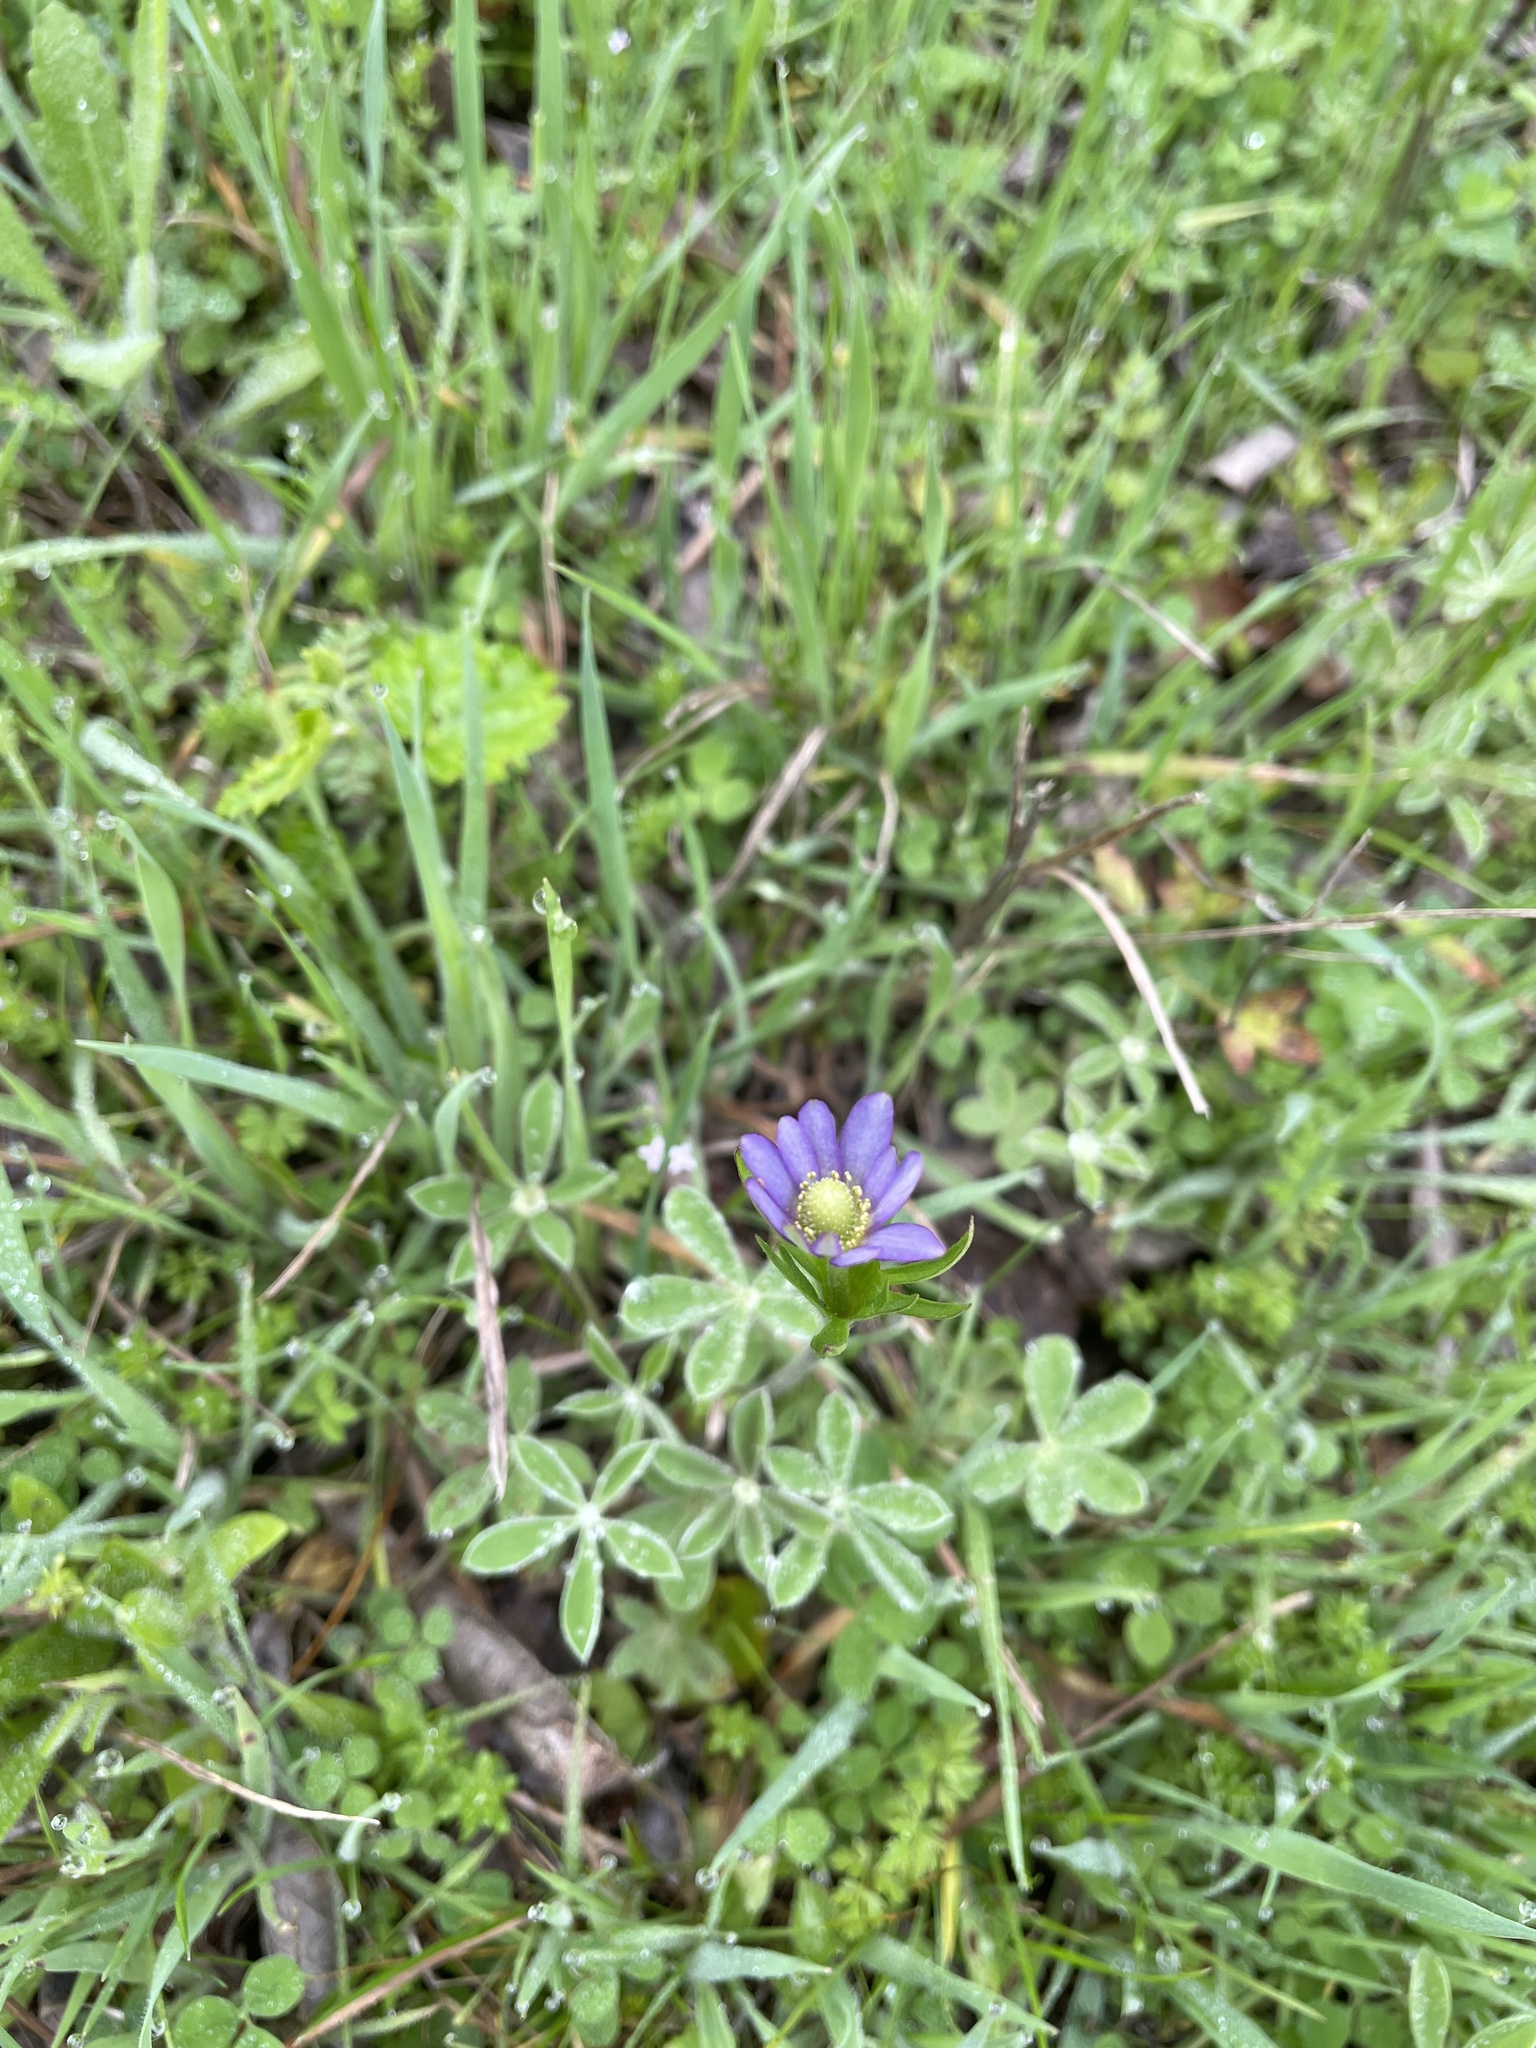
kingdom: Plantae
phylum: Tracheophyta
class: Magnoliopsida
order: Ranunculales
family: Ranunculaceae
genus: Anemone
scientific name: Anemone berlandieri
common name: Ten-petal anemone
